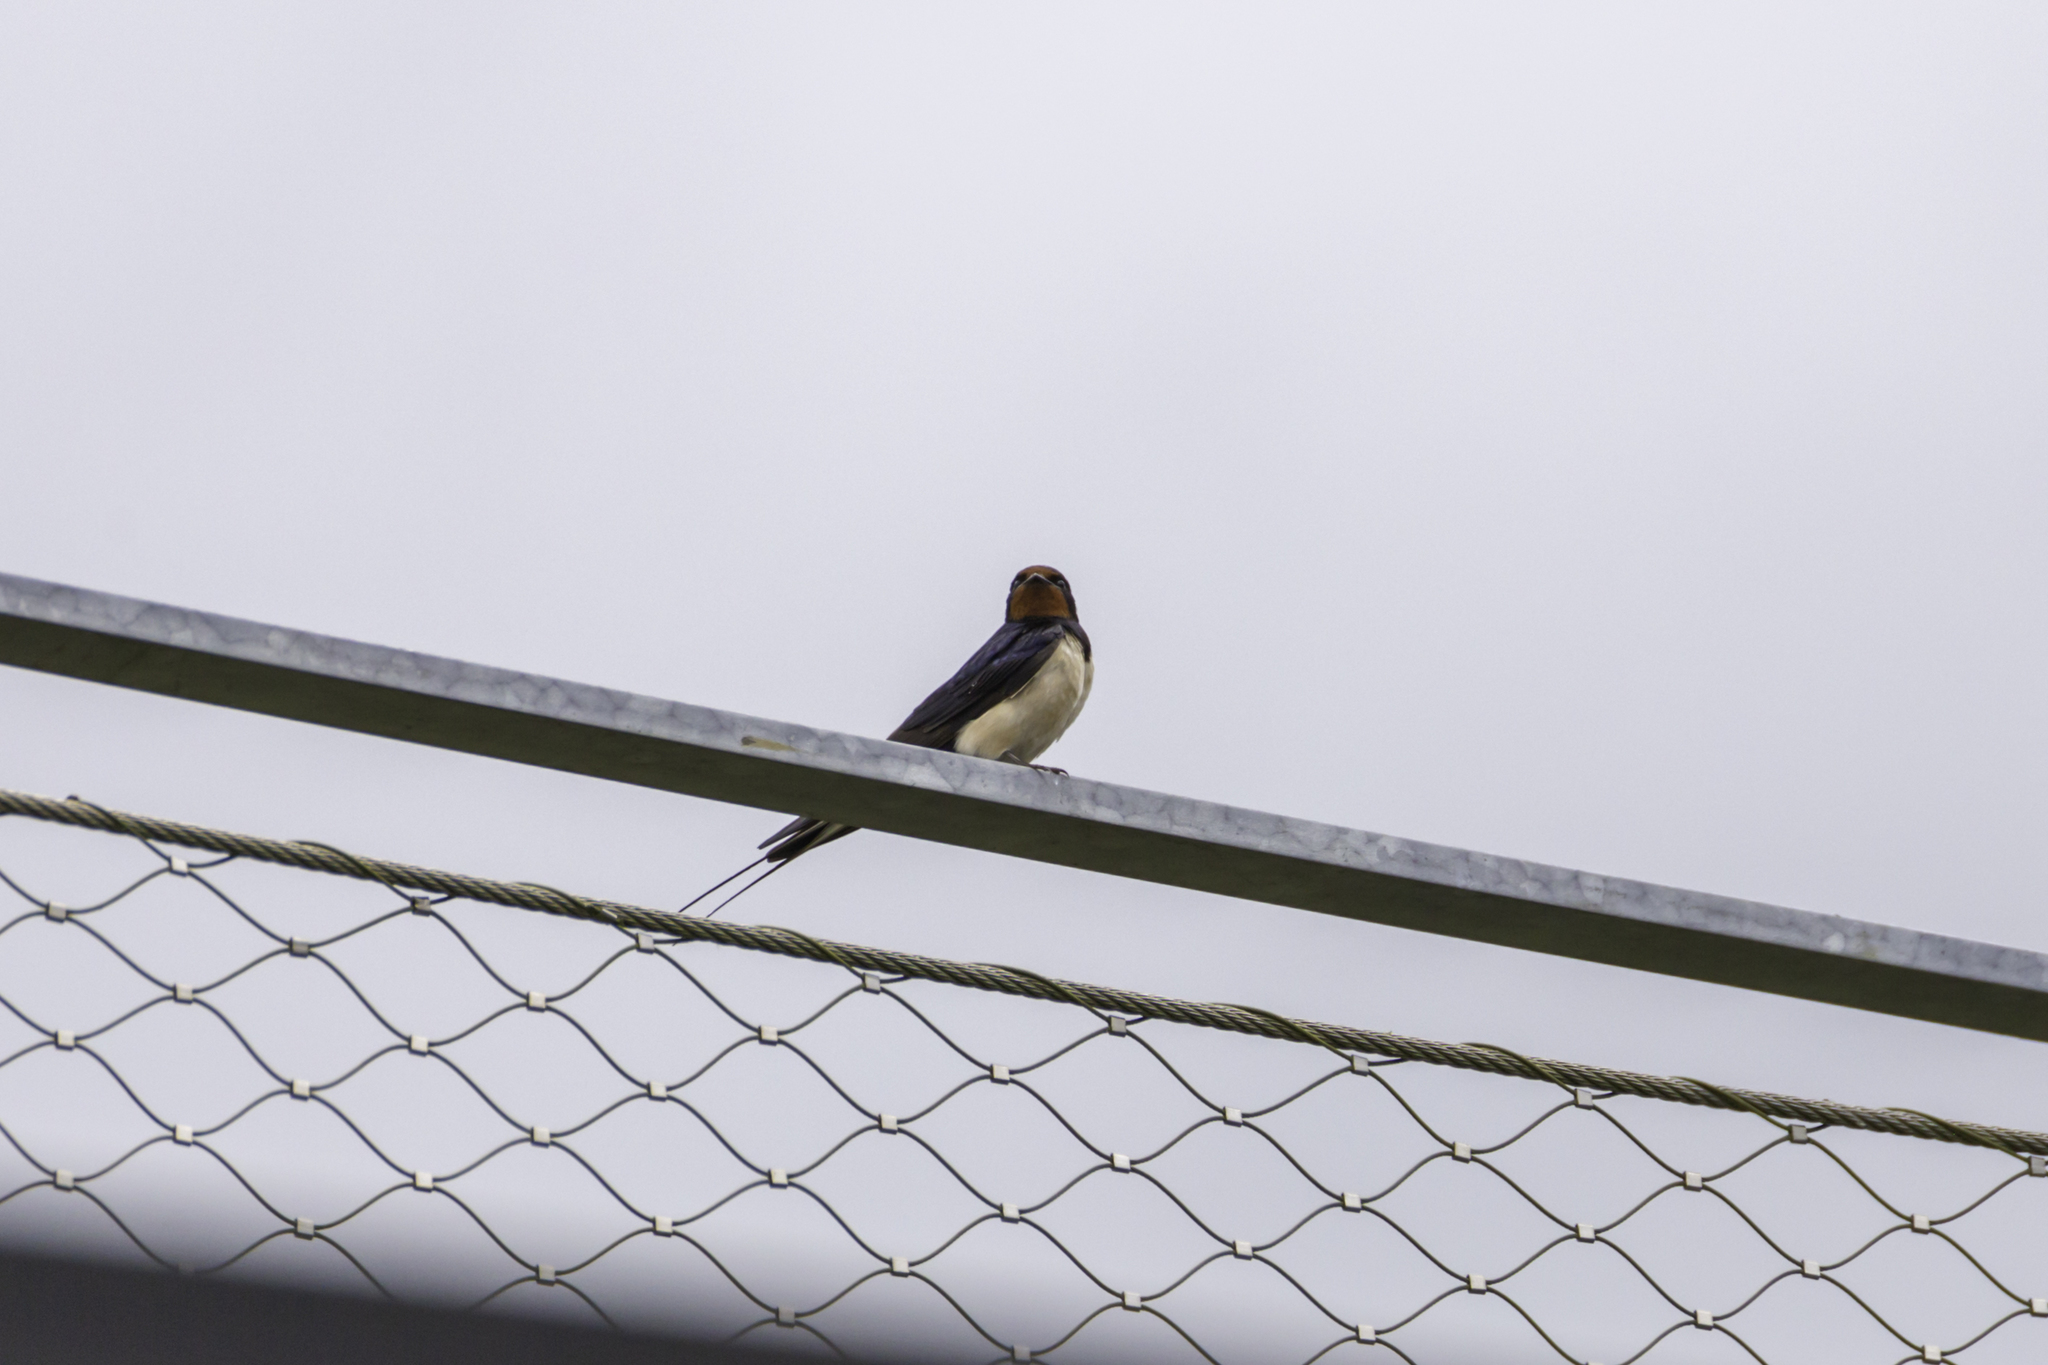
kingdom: Animalia
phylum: Chordata
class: Aves
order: Passeriformes
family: Hirundinidae
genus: Hirundo
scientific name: Hirundo rustica
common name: Barn swallow
